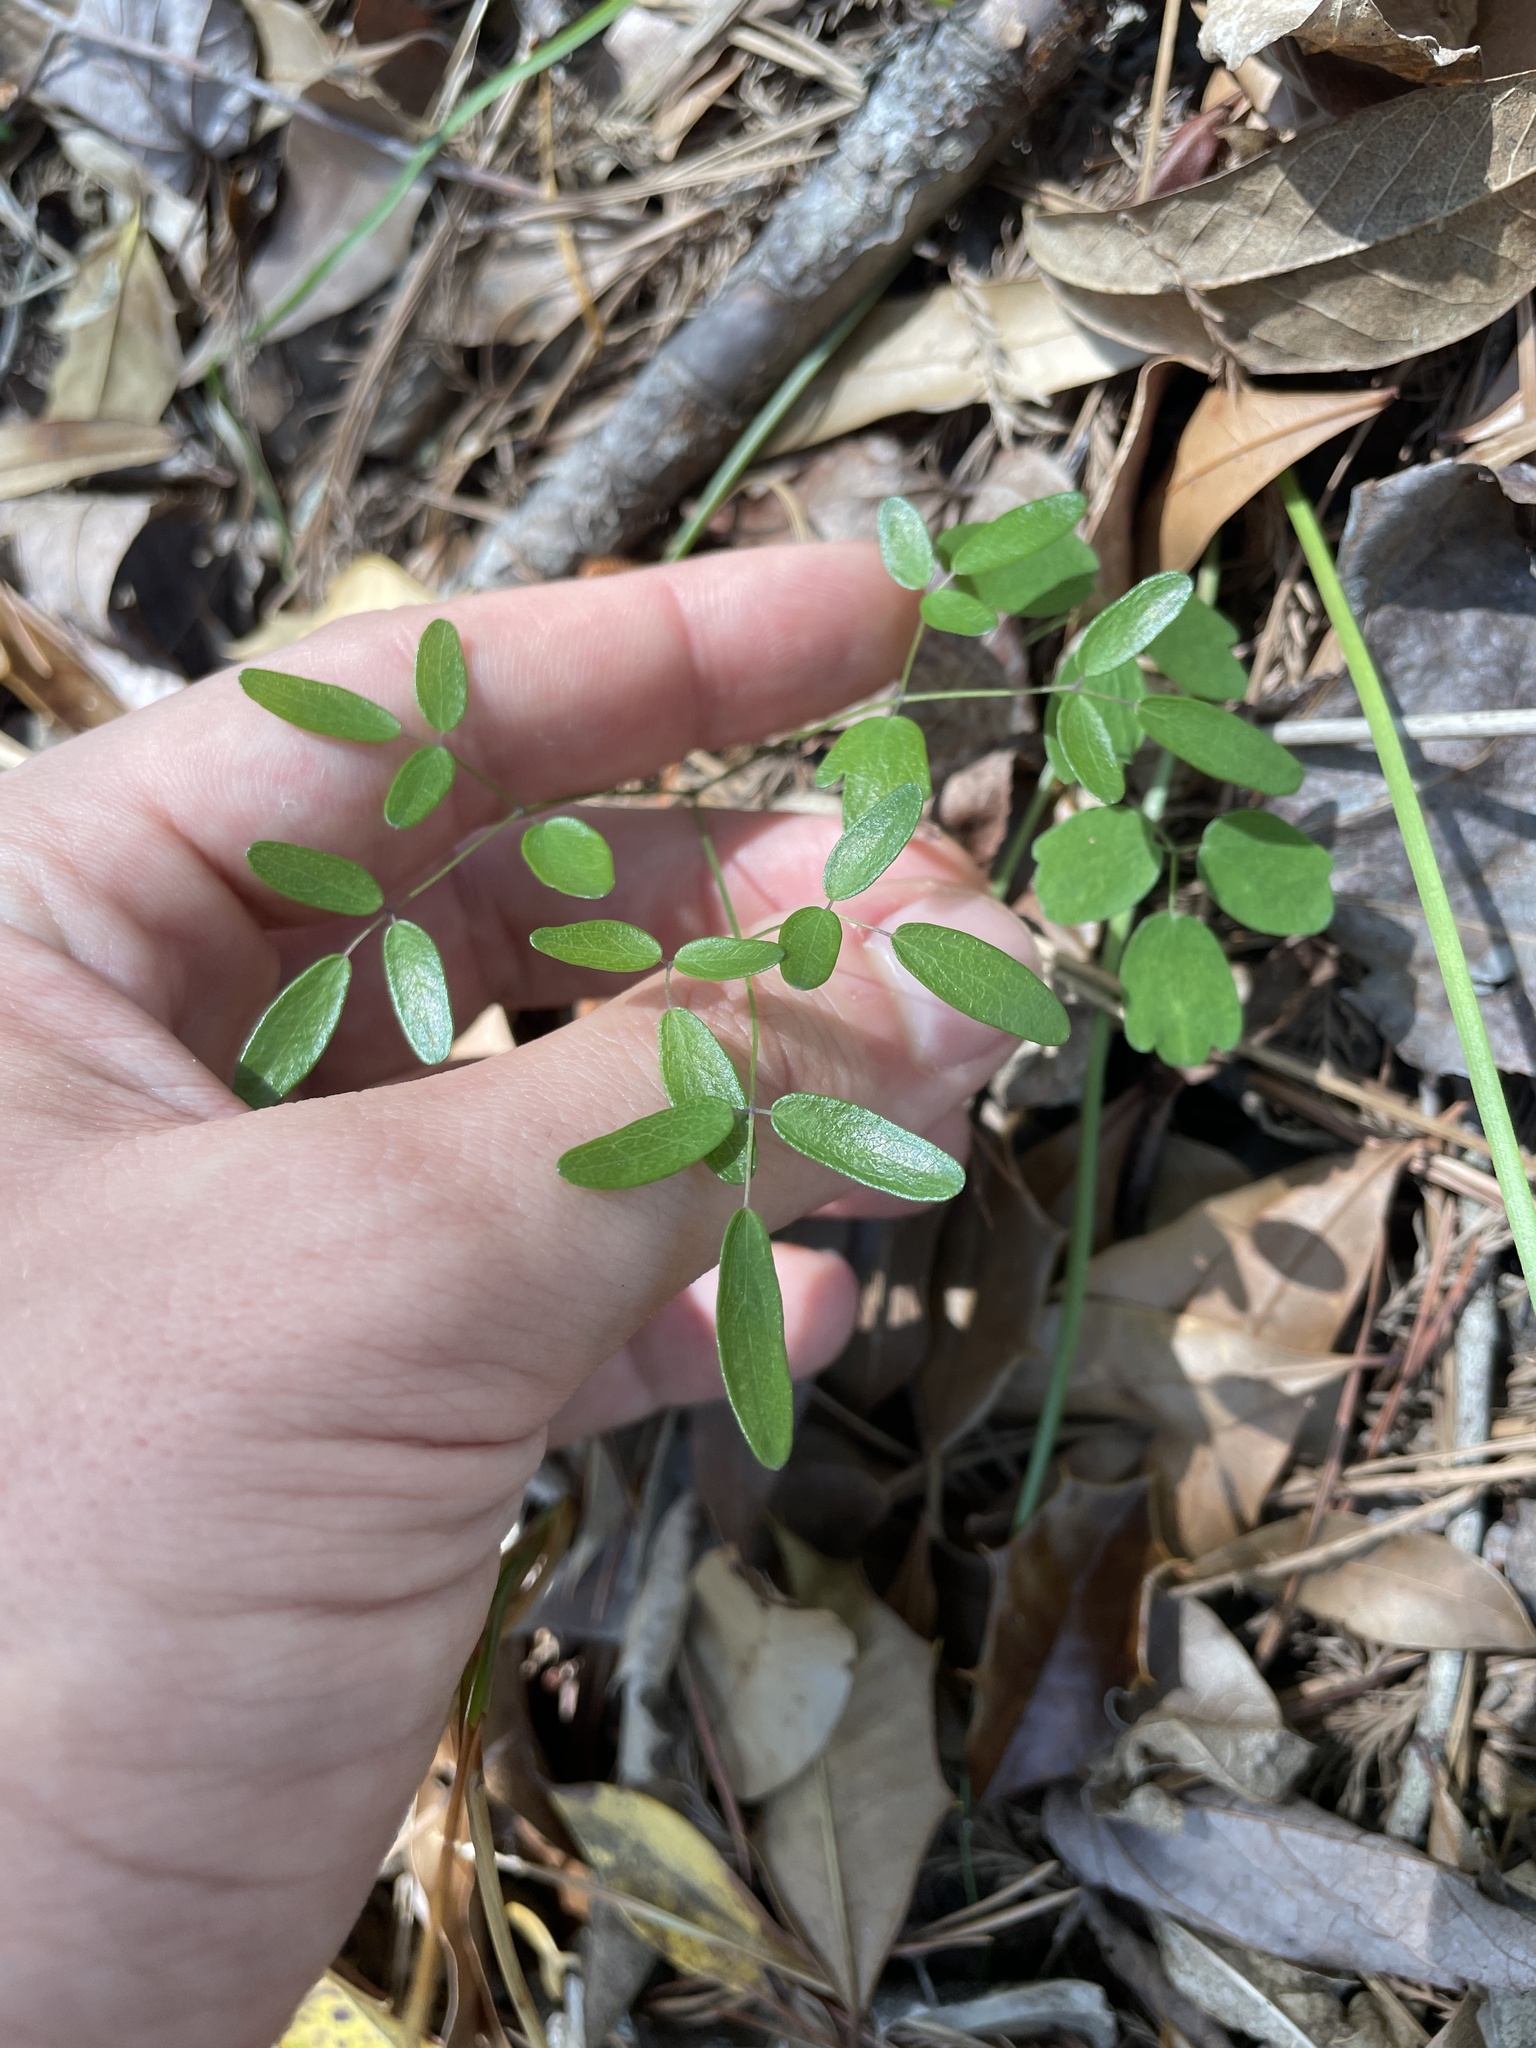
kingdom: Plantae
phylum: Tracheophyta
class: Magnoliopsida
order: Ranunculales
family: Ranunculaceae
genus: Thalictrum
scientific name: Thalictrum cooleyi
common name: Cooley's meadow-rue
